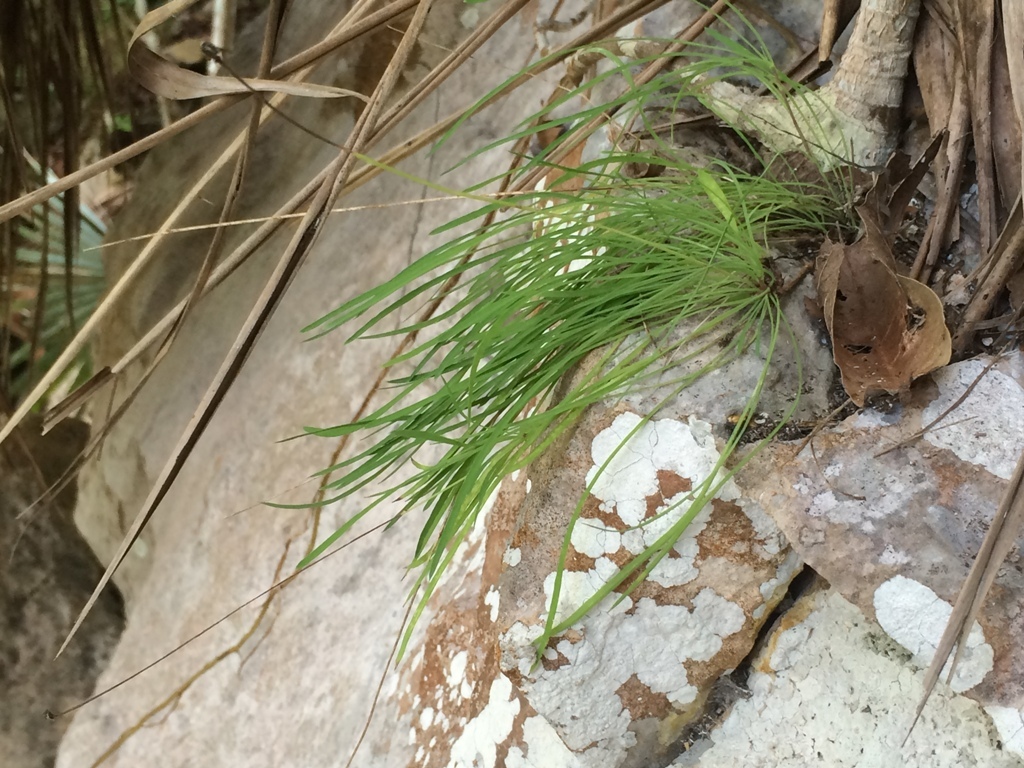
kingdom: Plantae
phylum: Tracheophyta
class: Magnoliopsida
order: Asterales
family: Asteraceae
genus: Pinaropappus
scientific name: Pinaropappus spathulatus
